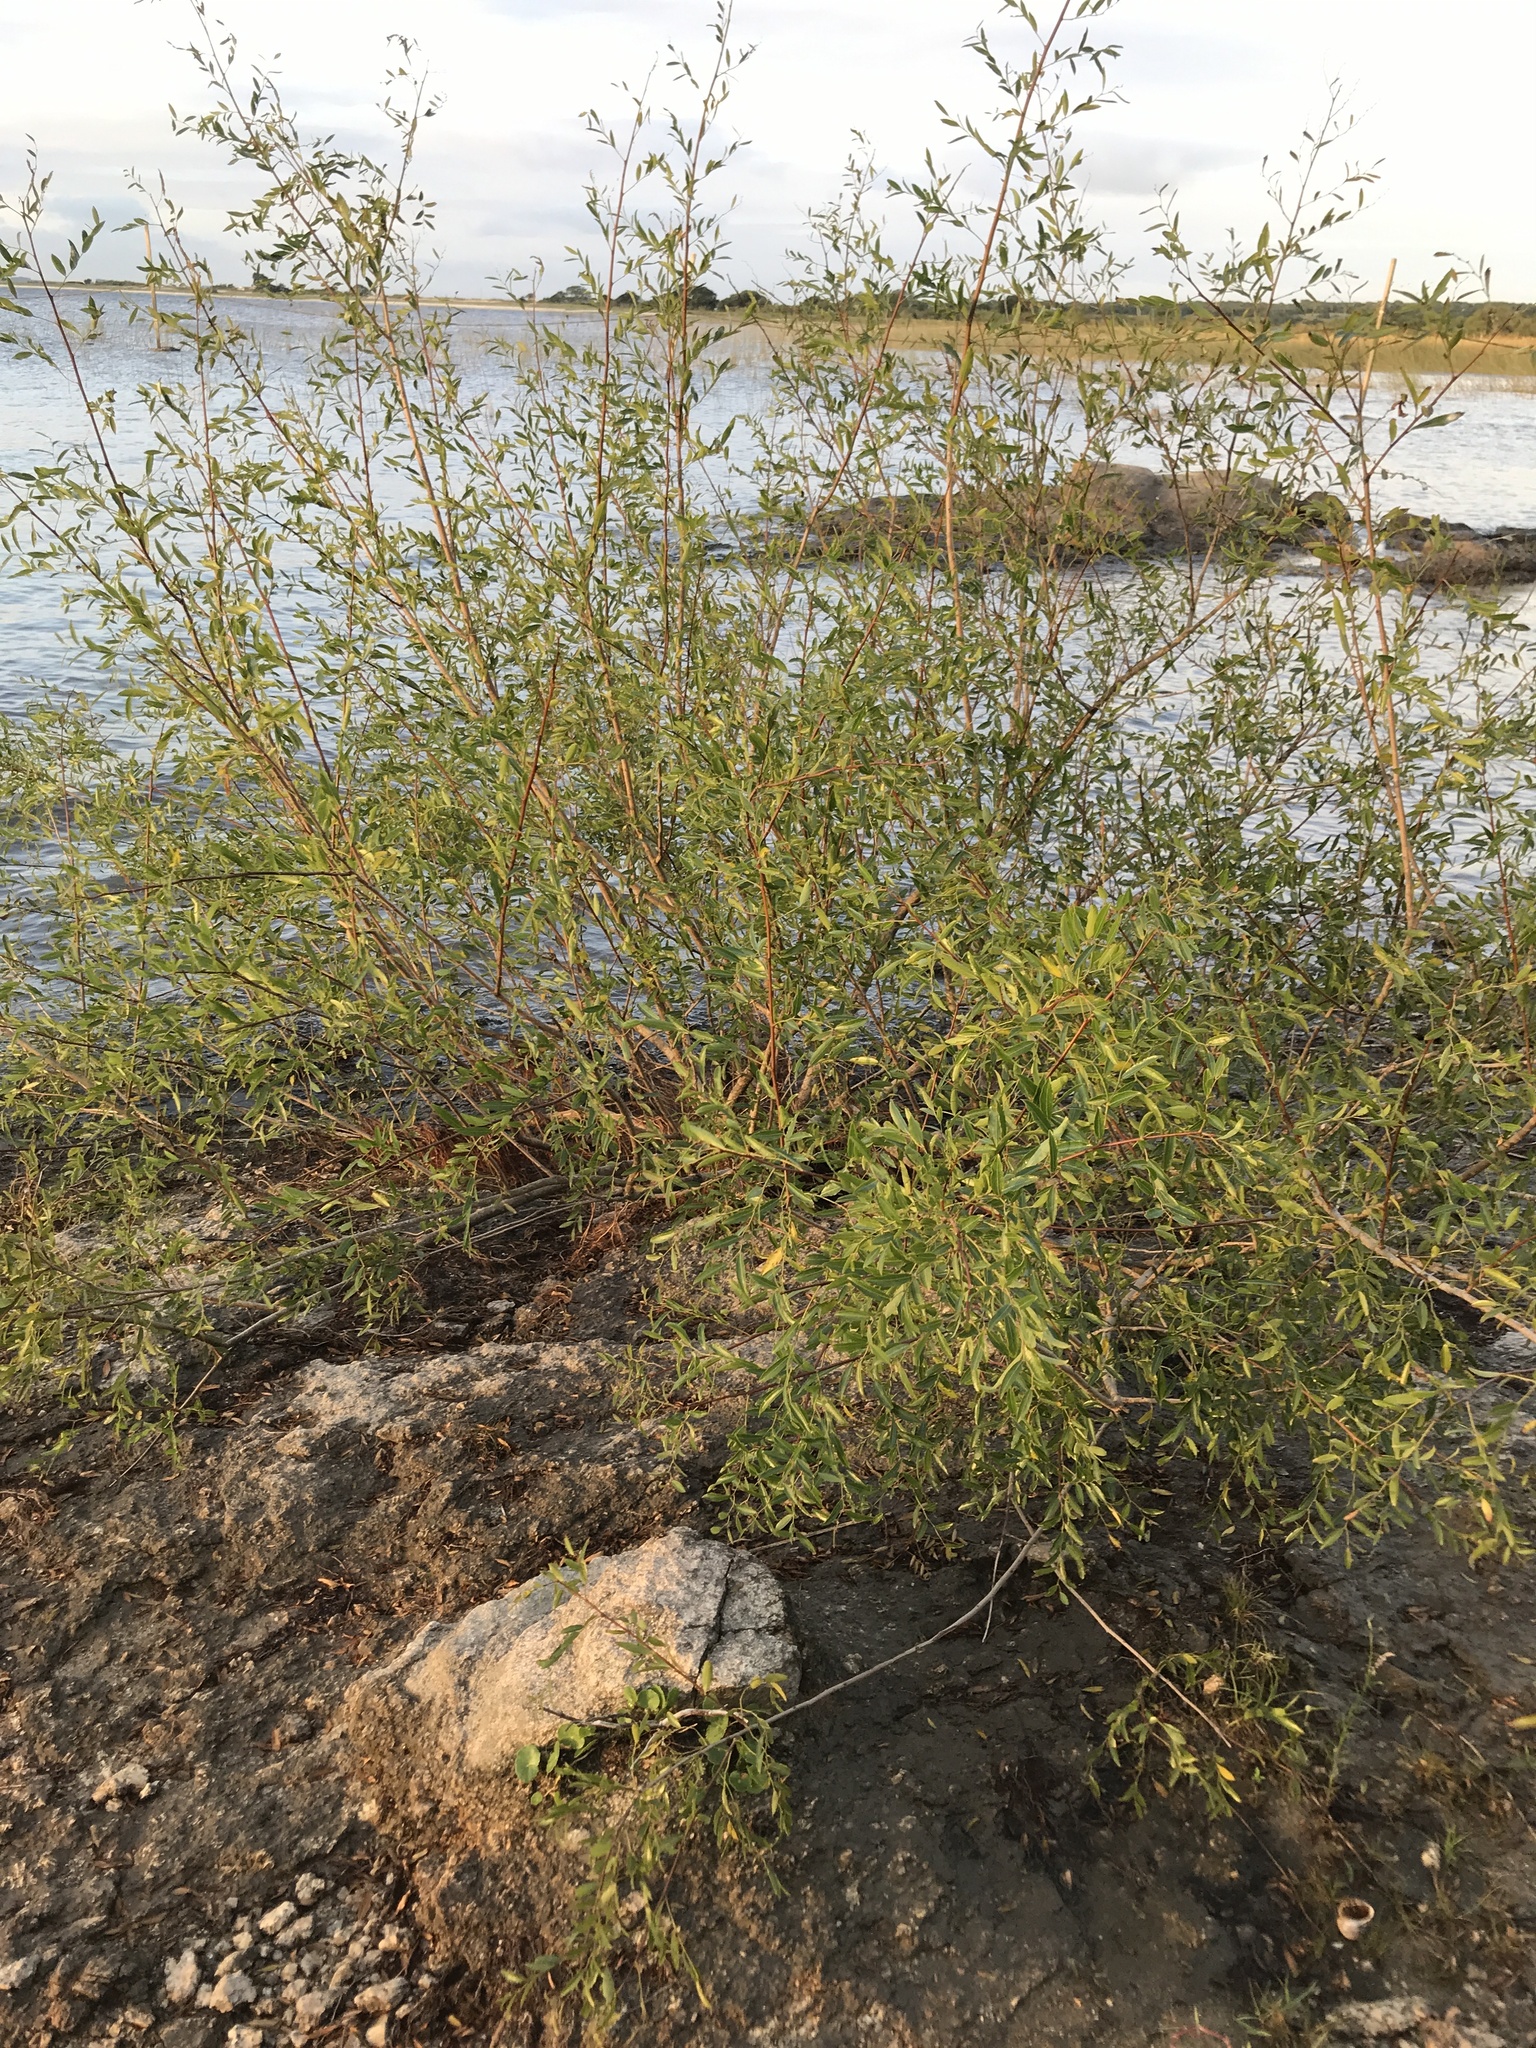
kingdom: Plantae
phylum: Tracheophyta
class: Magnoliopsida
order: Malpighiales
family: Phyllanthaceae
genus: Phyllanthus
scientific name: Phyllanthus sellowianus
